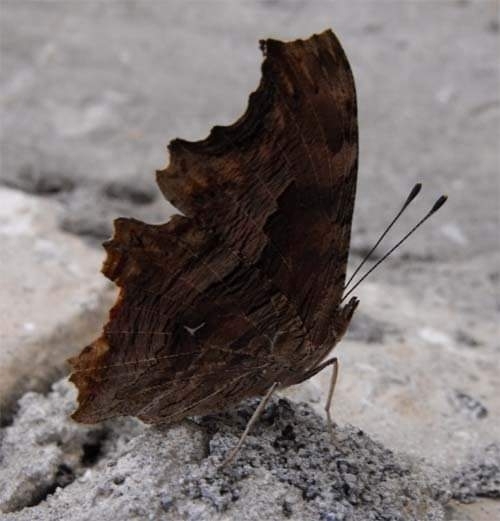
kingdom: Animalia
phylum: Arthropoda
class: Insecta
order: Lepidoptera
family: Nymphalidae
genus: Polygonia
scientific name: Polygonia egea
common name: Southern comma
